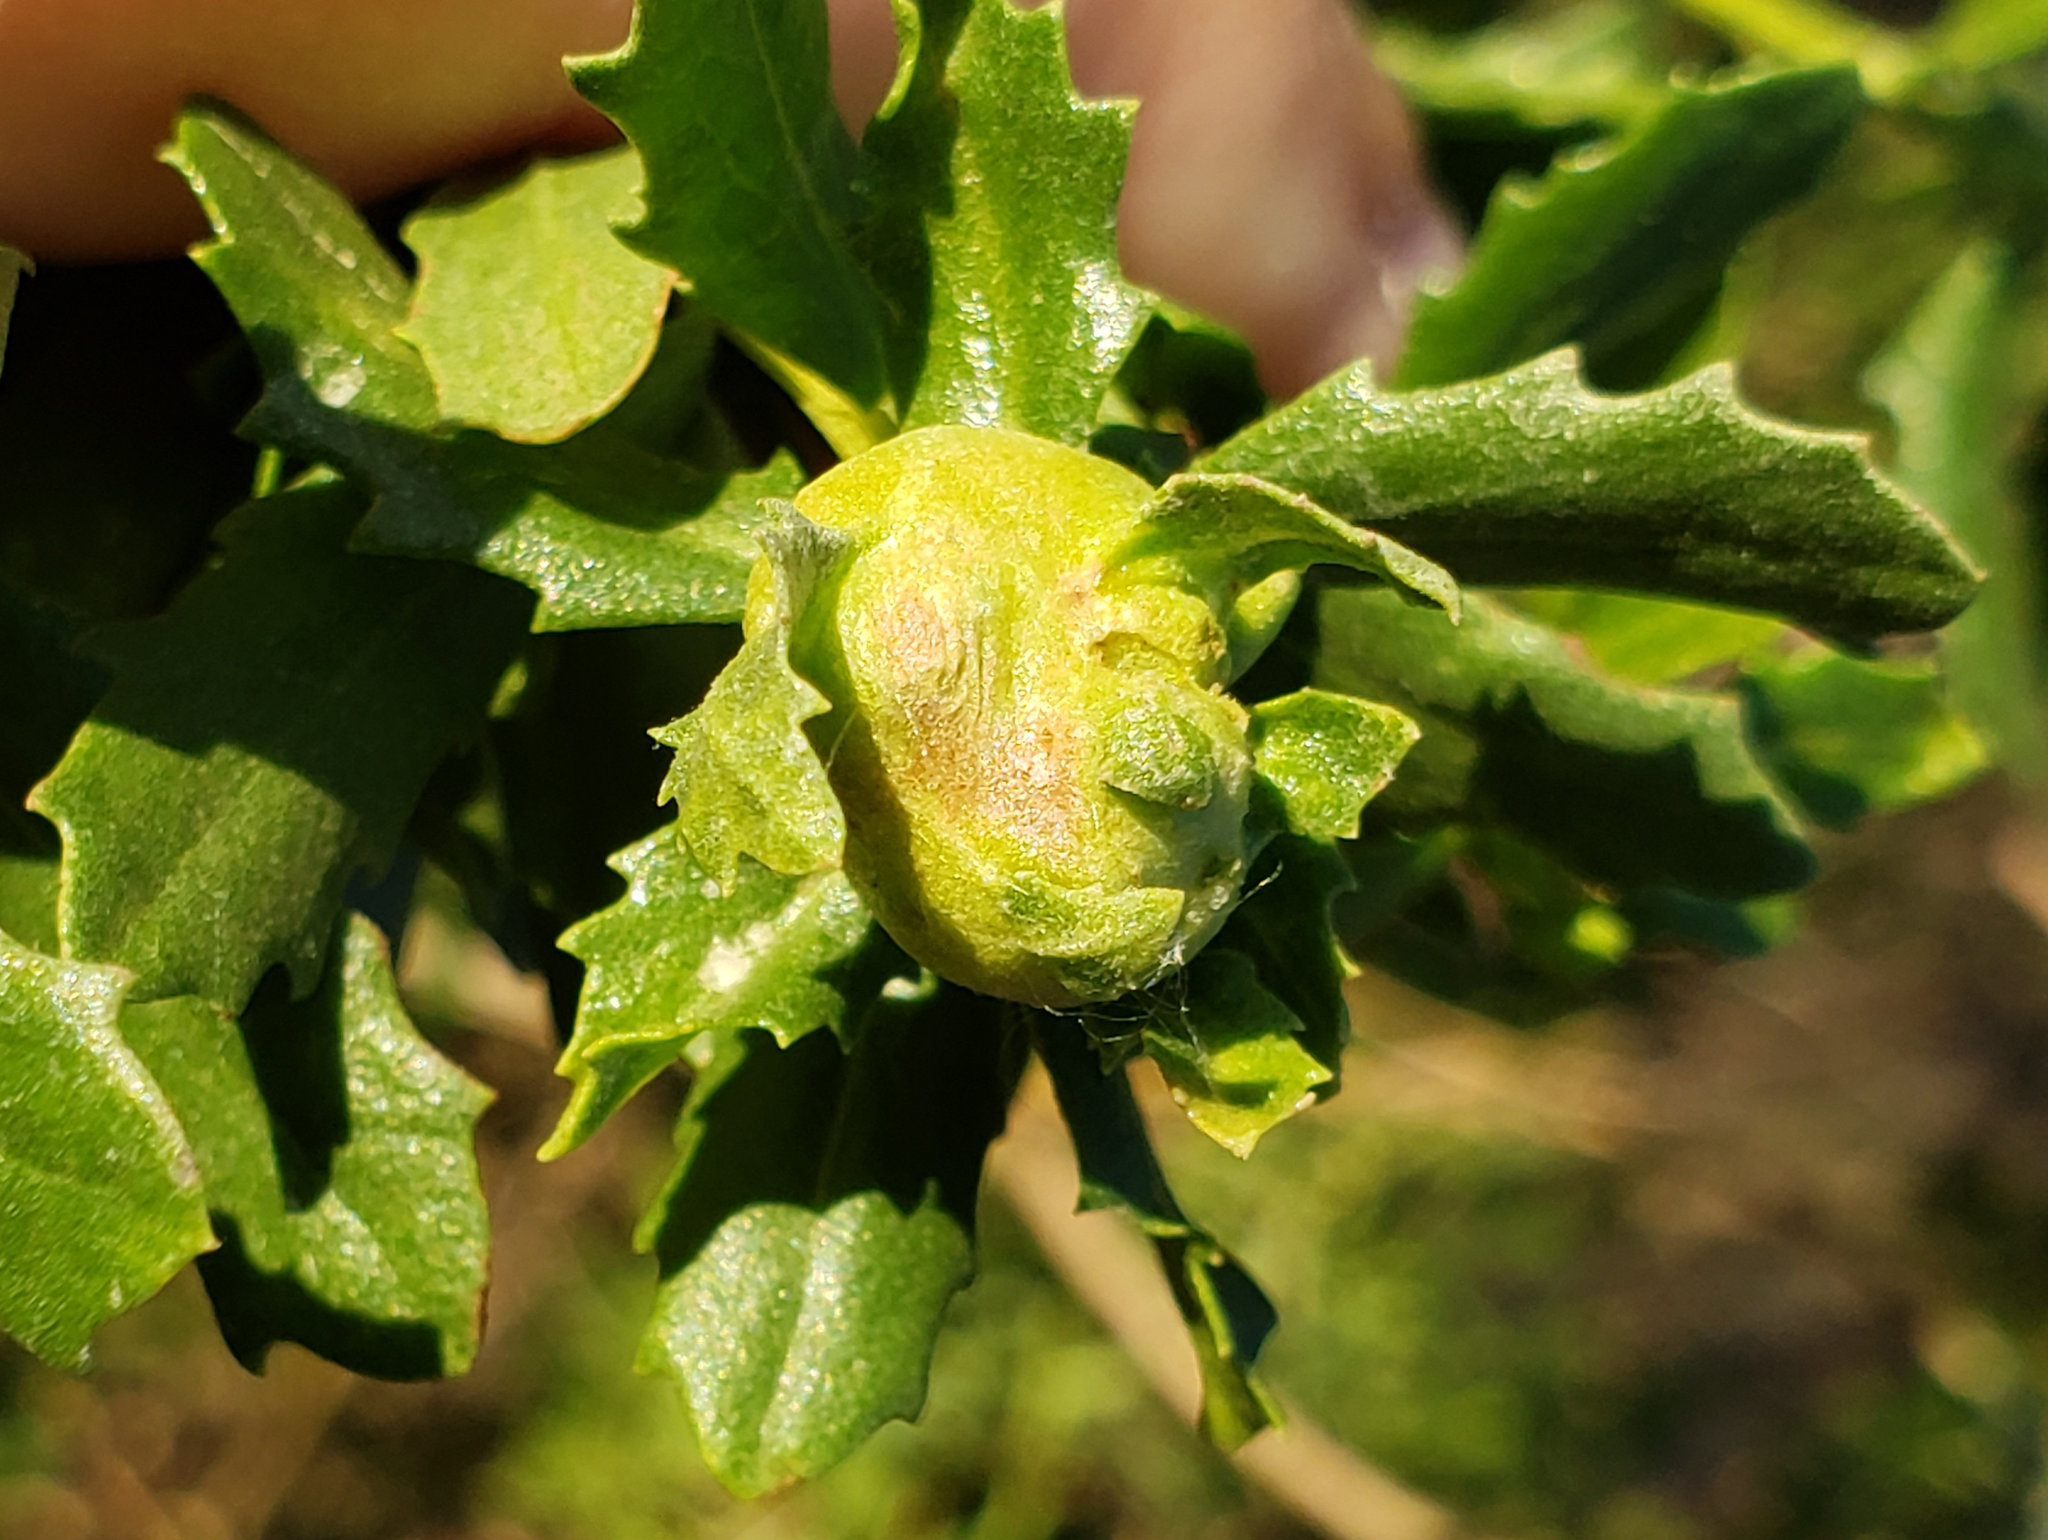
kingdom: Animalia
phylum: Arthropoda
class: Insecta
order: Diptera
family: Cecidomyiidae
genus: Rhopalomyia
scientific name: Rhopalomyia californica
